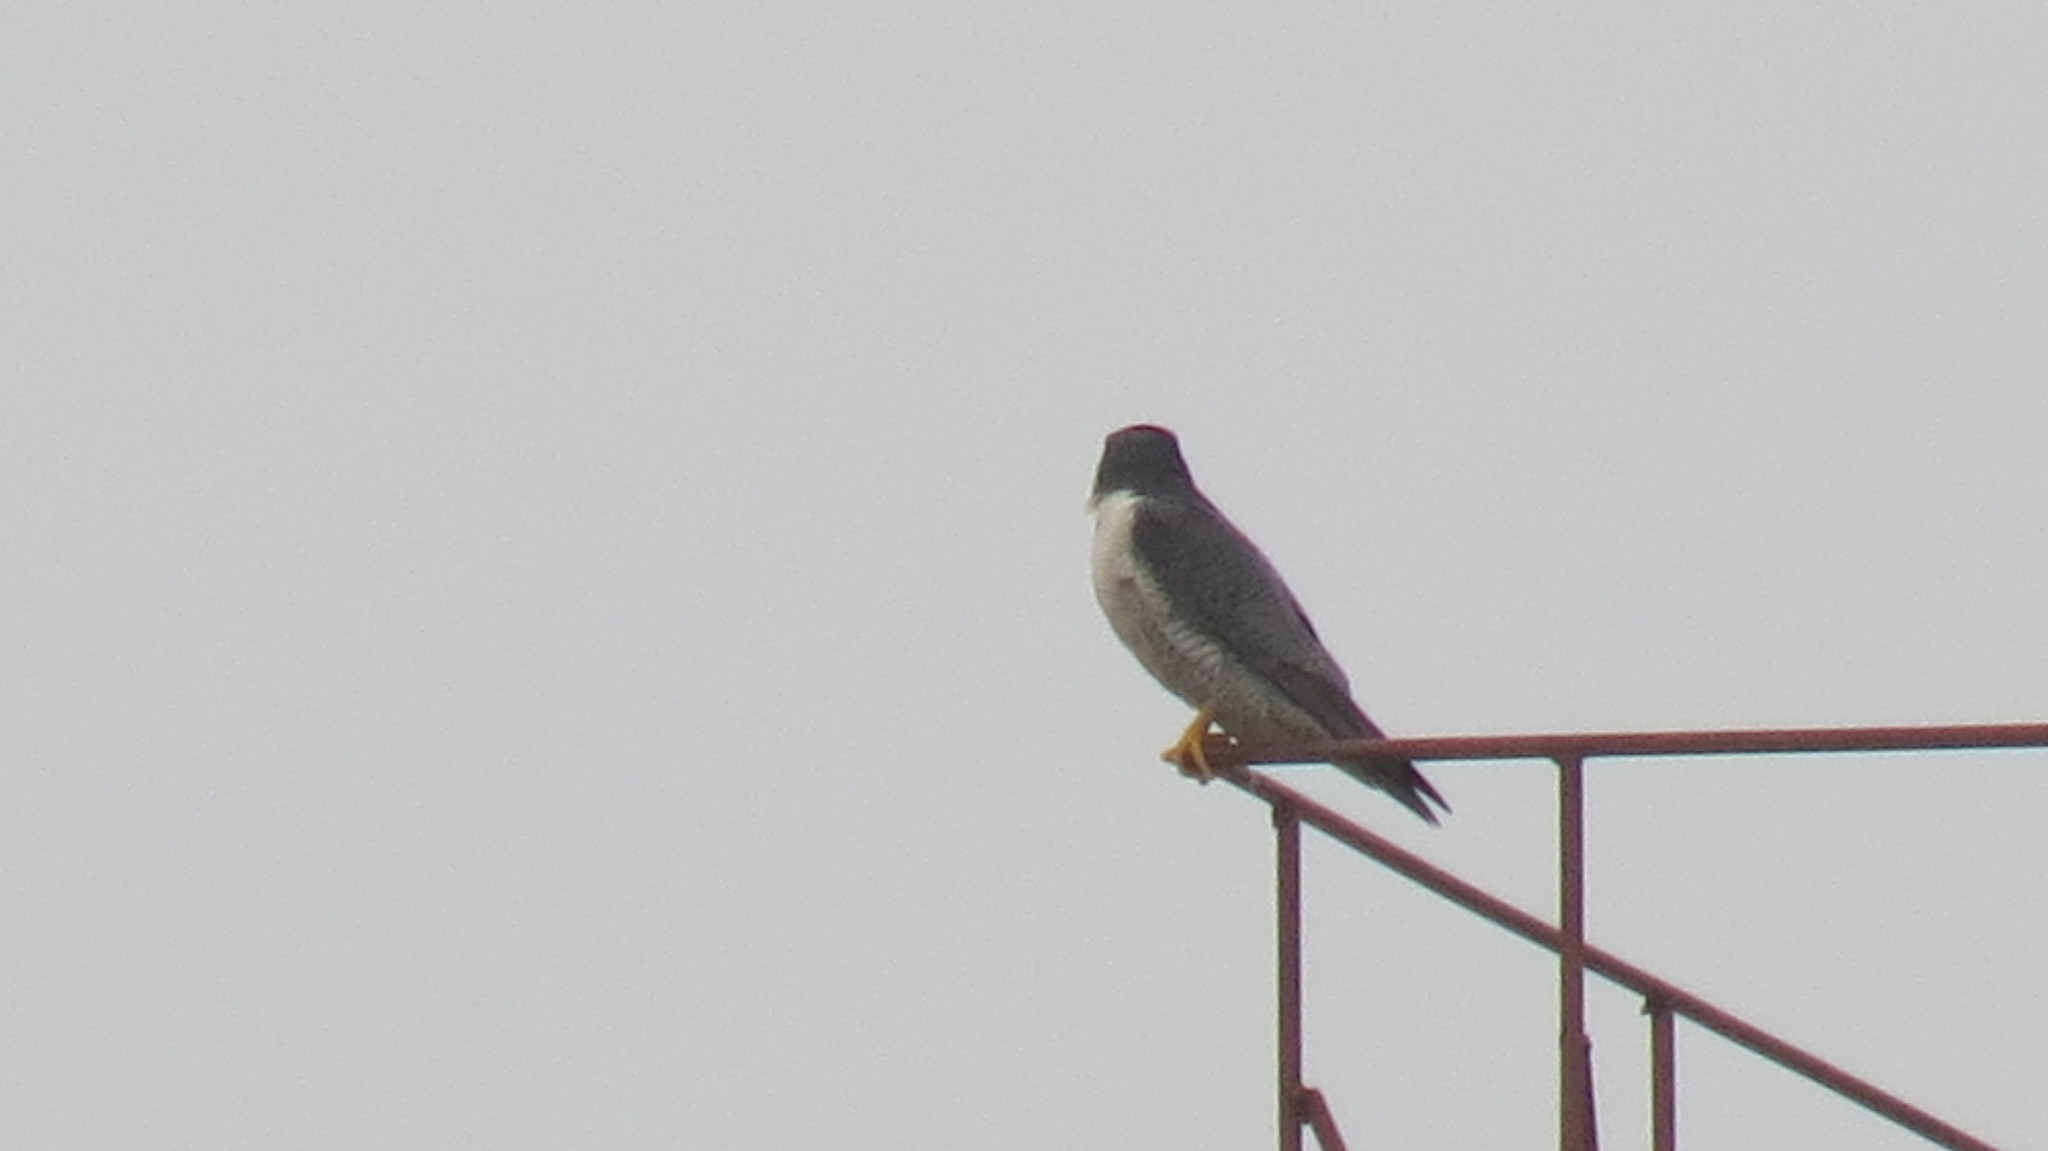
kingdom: Animalia
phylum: Chordata
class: Aves
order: Falconiformes
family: Falconidae
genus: Falco
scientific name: Falco peregrinus
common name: Peregrine falcon
